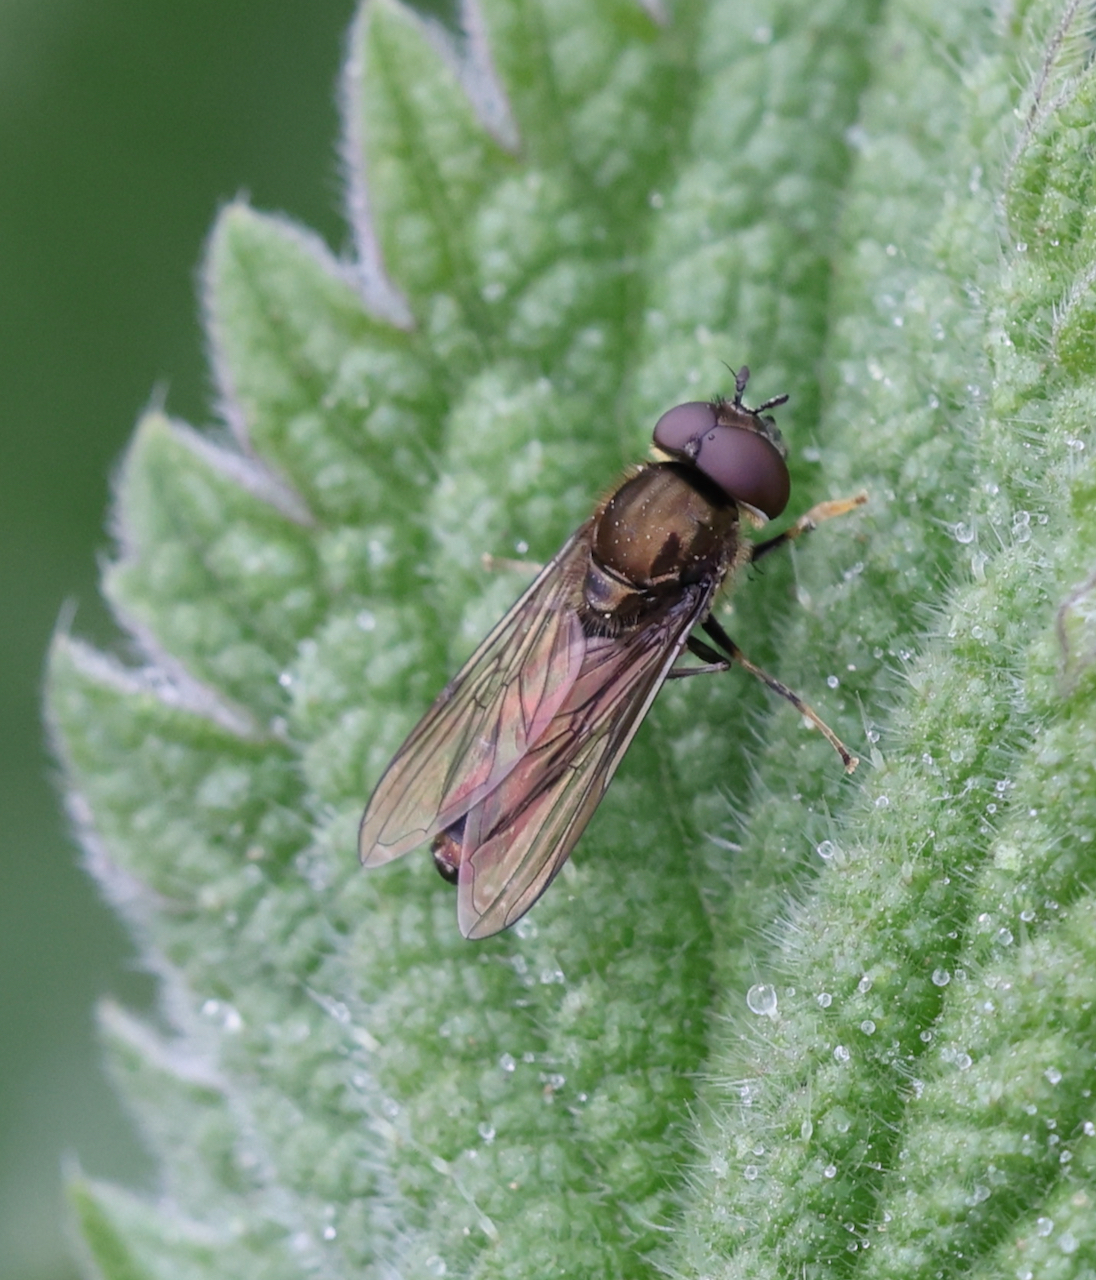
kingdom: Animalia
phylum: Arthropoda
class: Insecta
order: Diptera
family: Syrphidae
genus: Platycheirus
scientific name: Platycheirus albimanus
